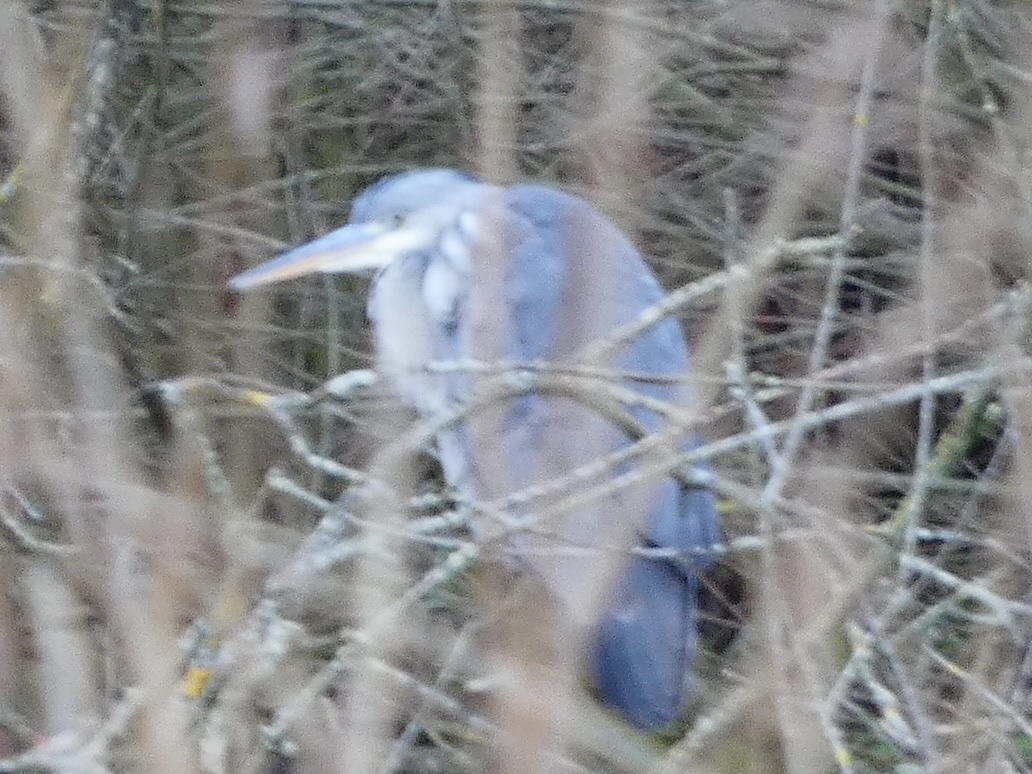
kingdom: Animalia
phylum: Chordata
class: Aves
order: Pelecaniformes
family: Ardeidae
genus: Ardea
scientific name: Ardea cinerea
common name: Grey heron
